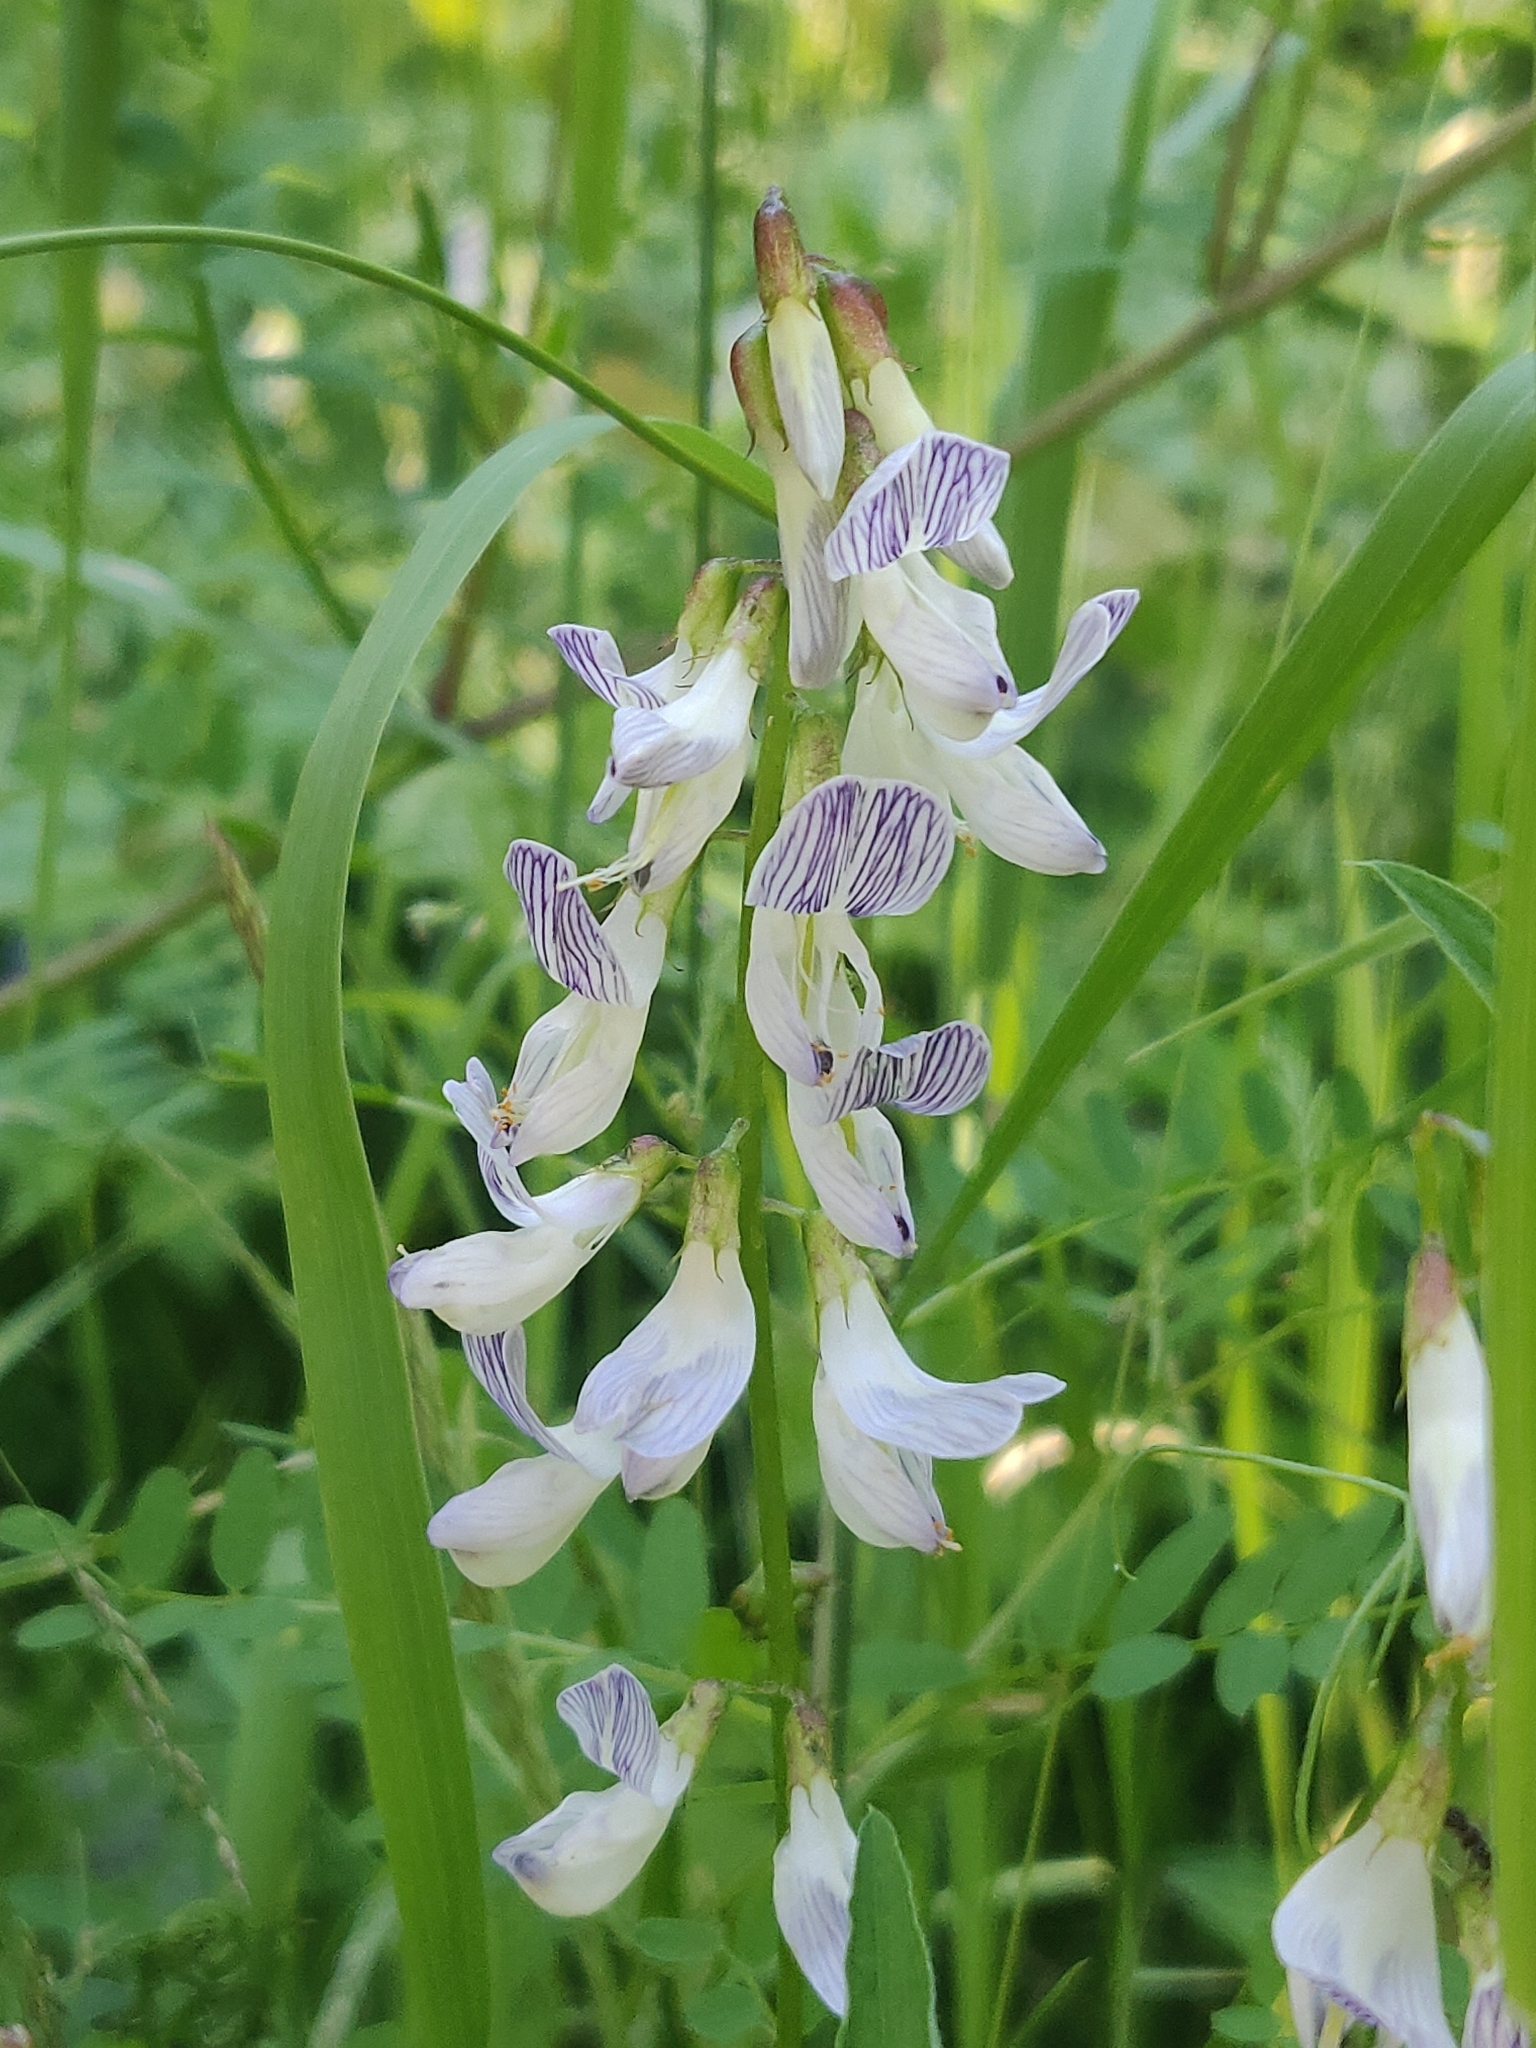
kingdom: Plantae
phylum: Tracheophyta
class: Magnoliopsida
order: Fabales
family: Fabaceae
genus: Vicia
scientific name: Vicia sylvatica
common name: Wood vetch
